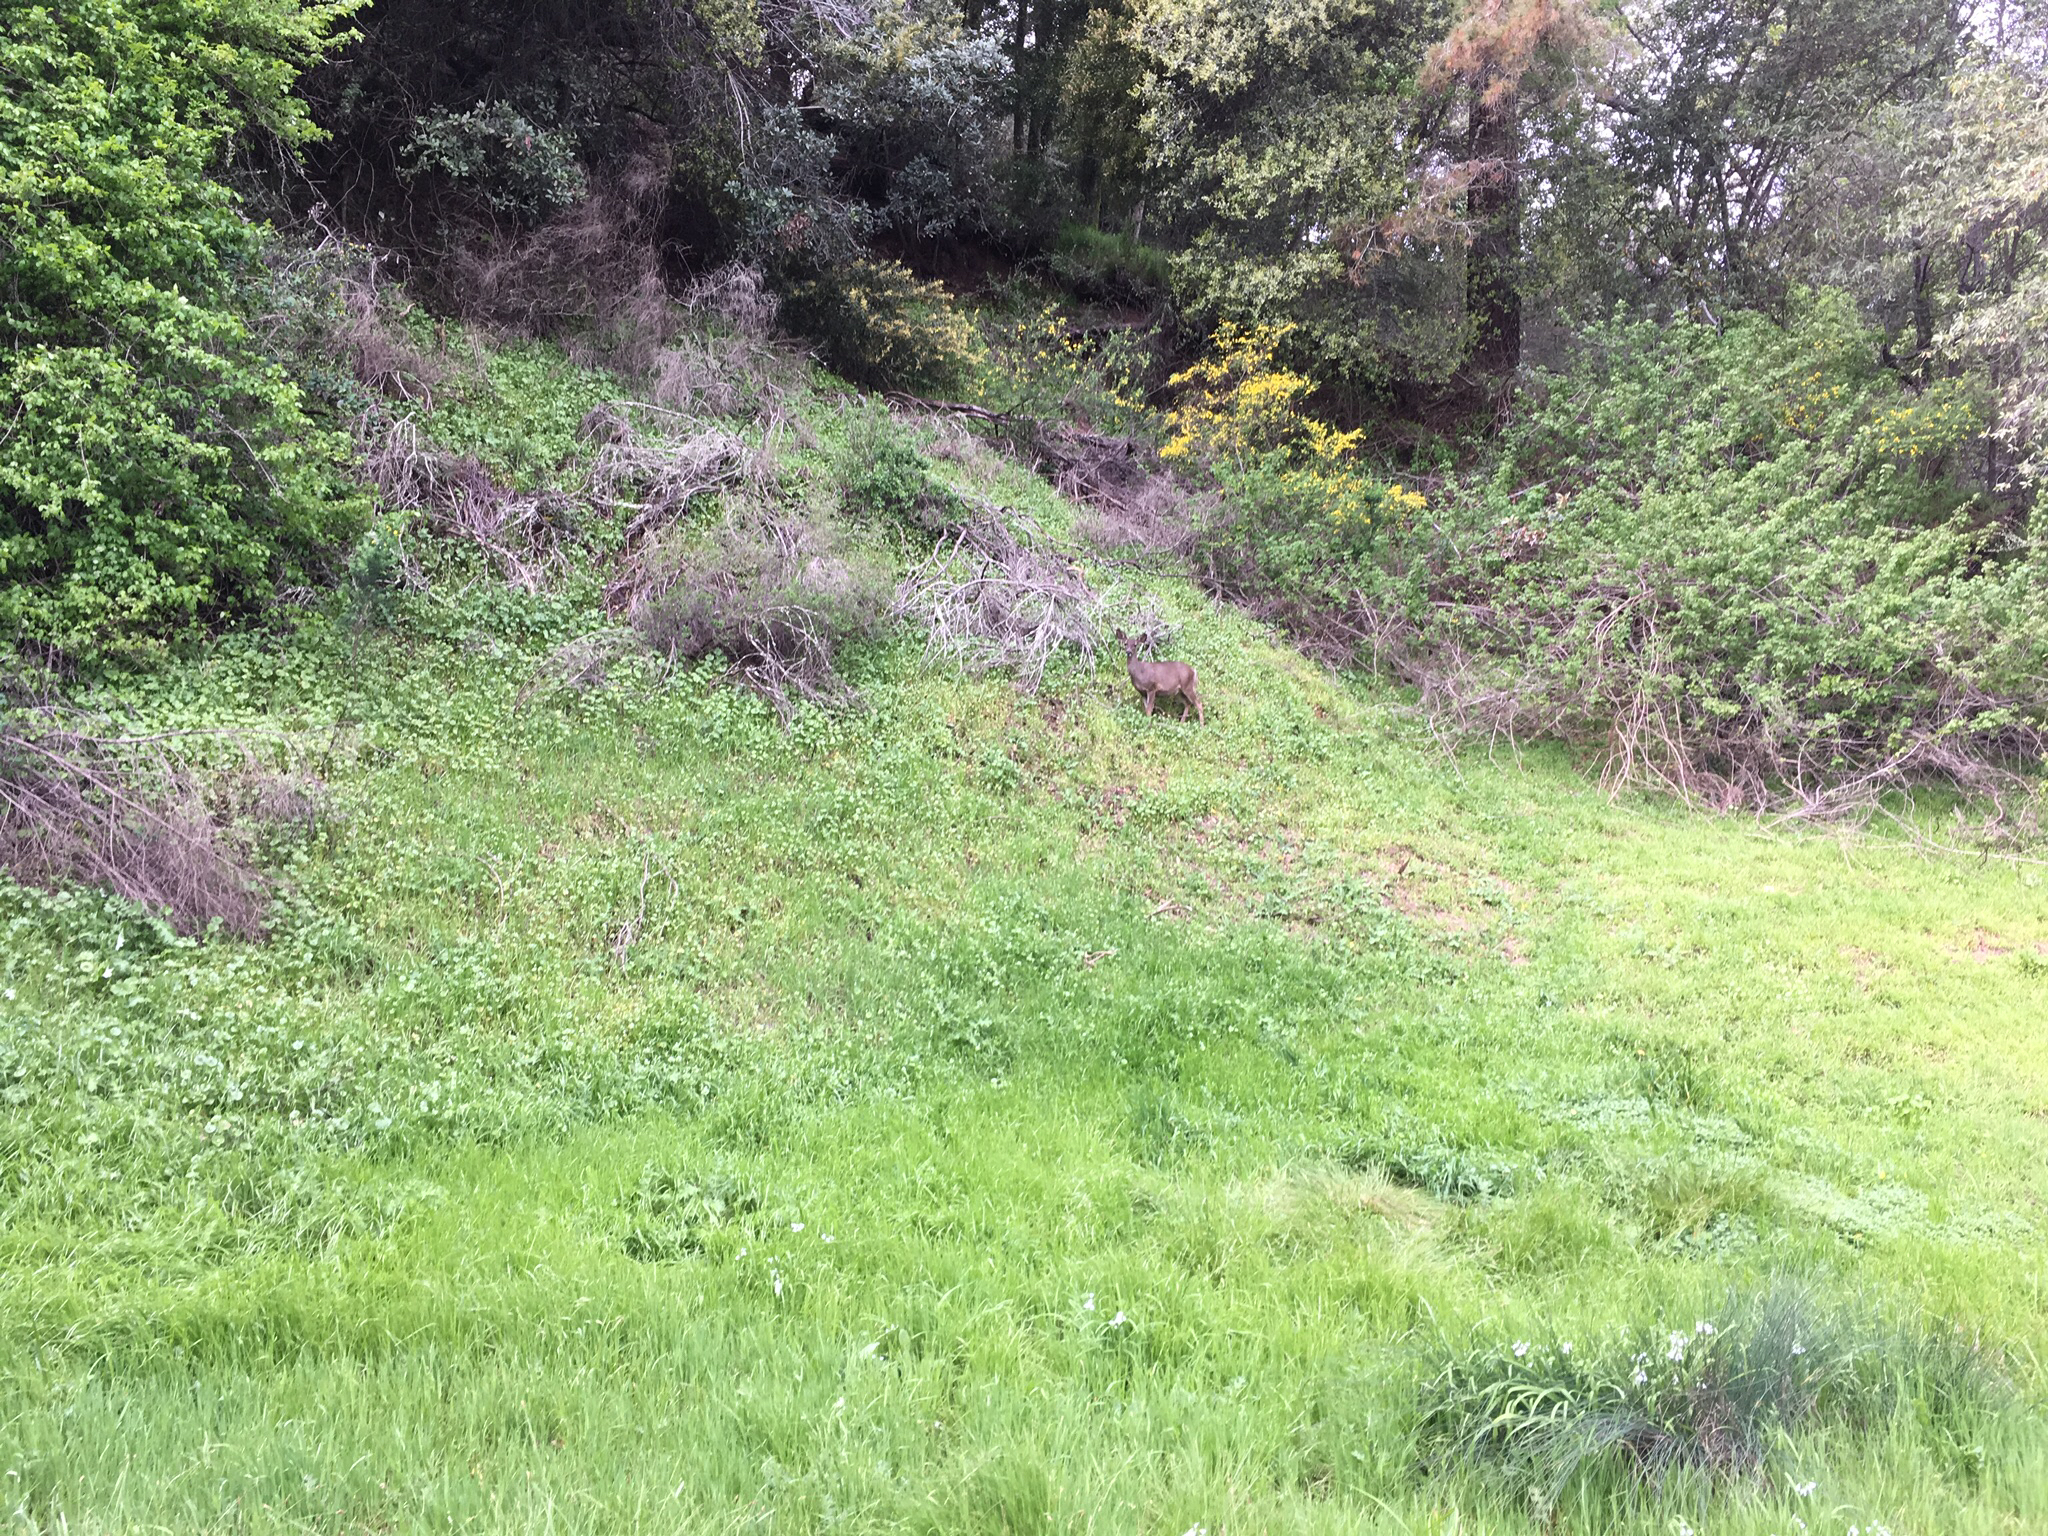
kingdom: Animalia
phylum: Chordata
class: Mammalia
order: Artiodactyla
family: Cervidae
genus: Odocoileus
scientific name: Odocoileus hemionus
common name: Mule deer
